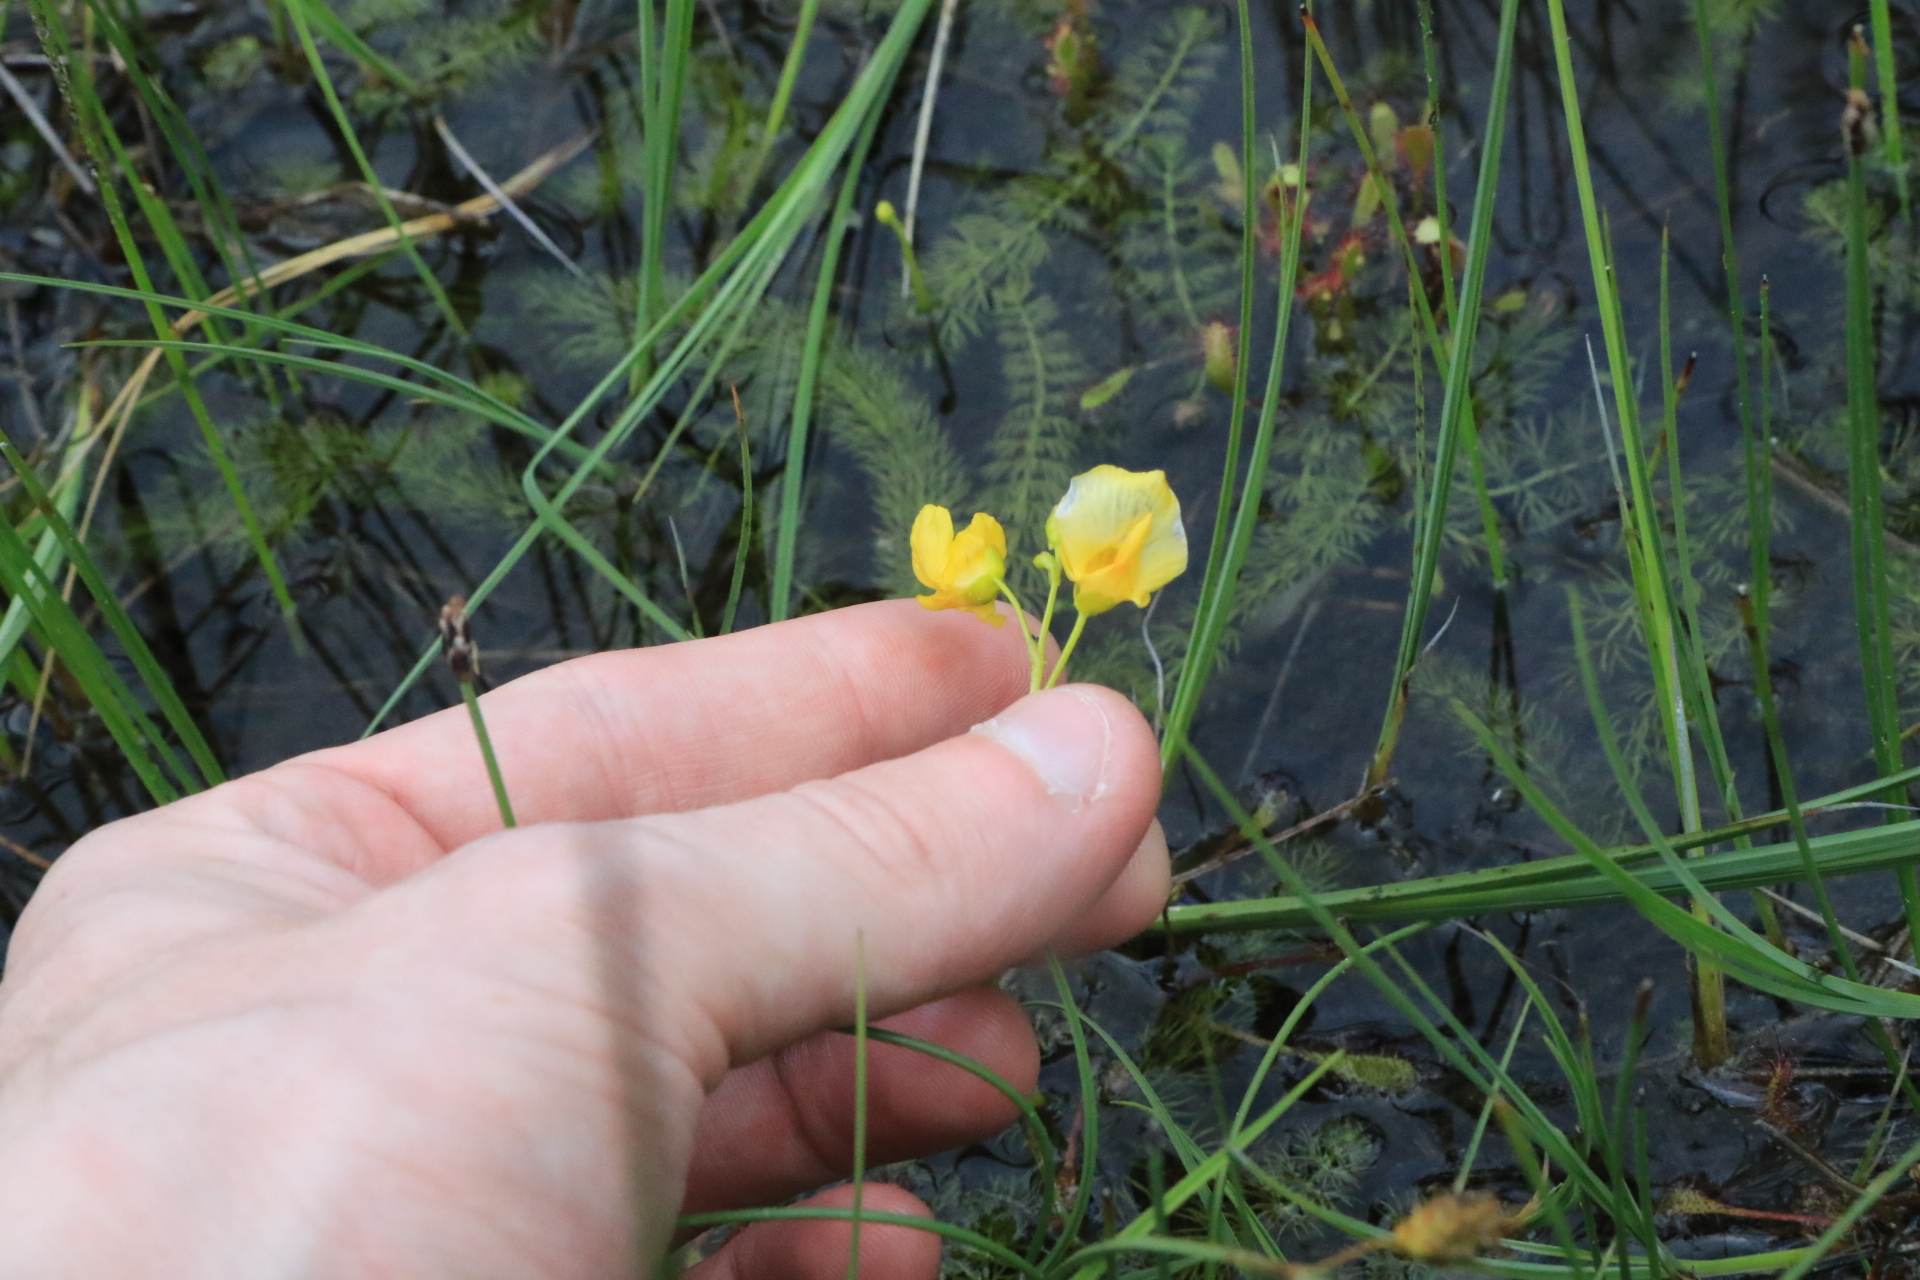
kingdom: Plantae
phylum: Tracheophyta
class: Magnoliopsida
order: Lamiales
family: Lentibulariaceae
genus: Utricularia
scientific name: Utricularia intermedia
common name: Intermediate bladderwort
